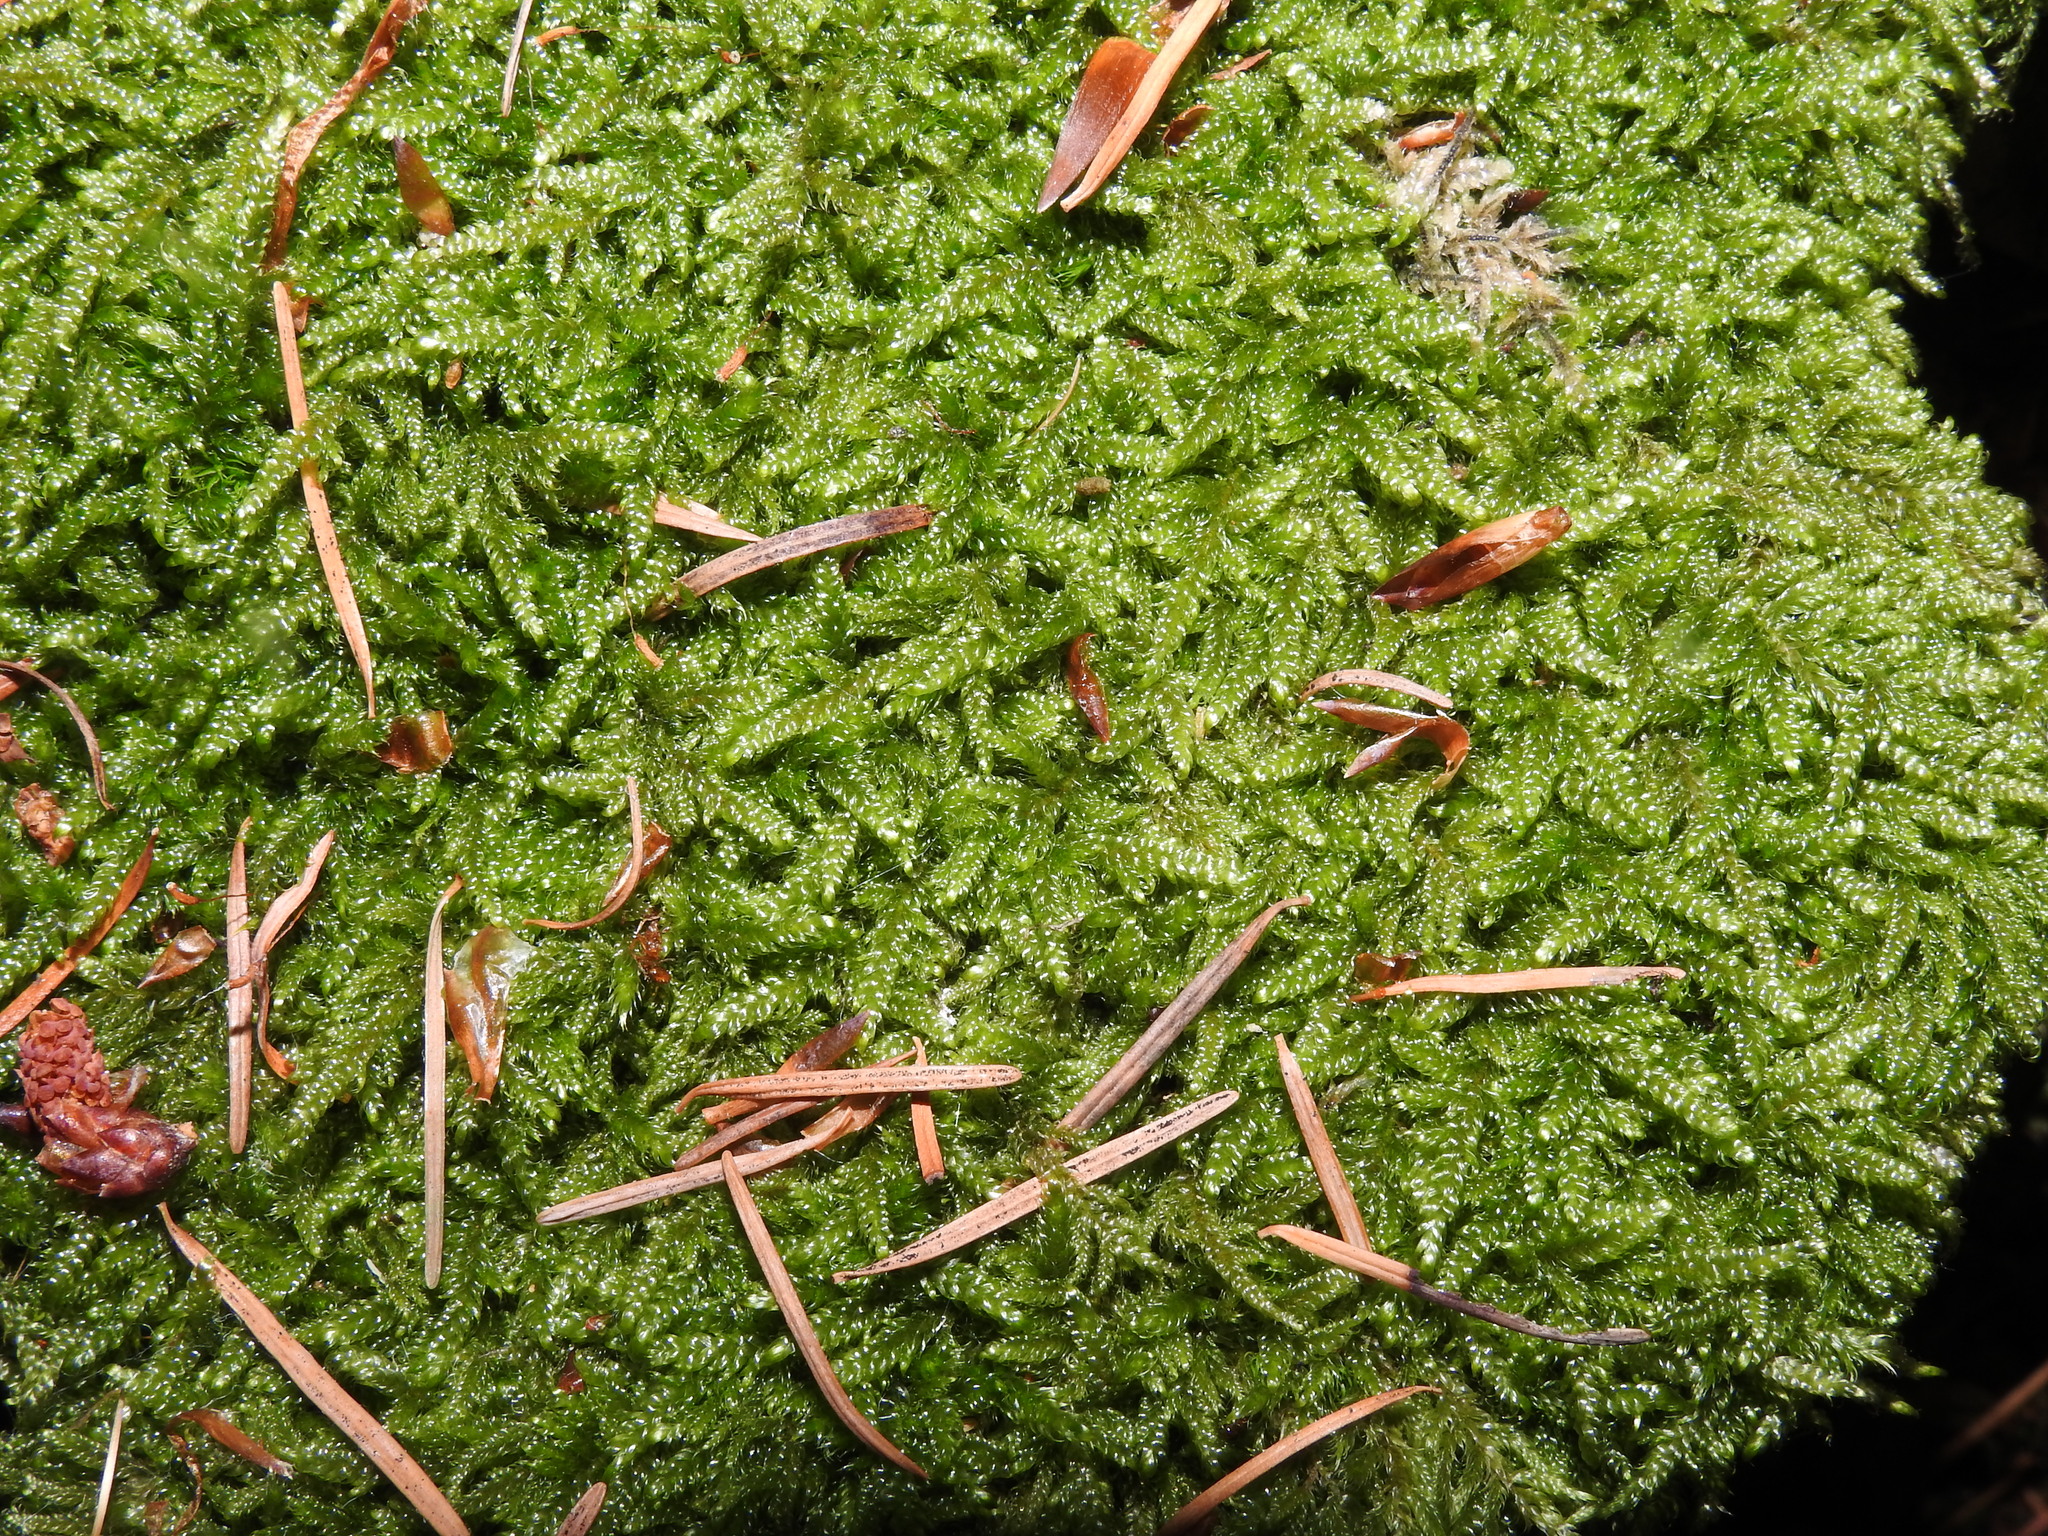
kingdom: Plantae
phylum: Bryophyta
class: Bryopsida
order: Hypnales
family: Hypnaceae
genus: Hypnum
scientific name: Hypnum cupressiforme
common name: Cypress-leaved plait-moss
